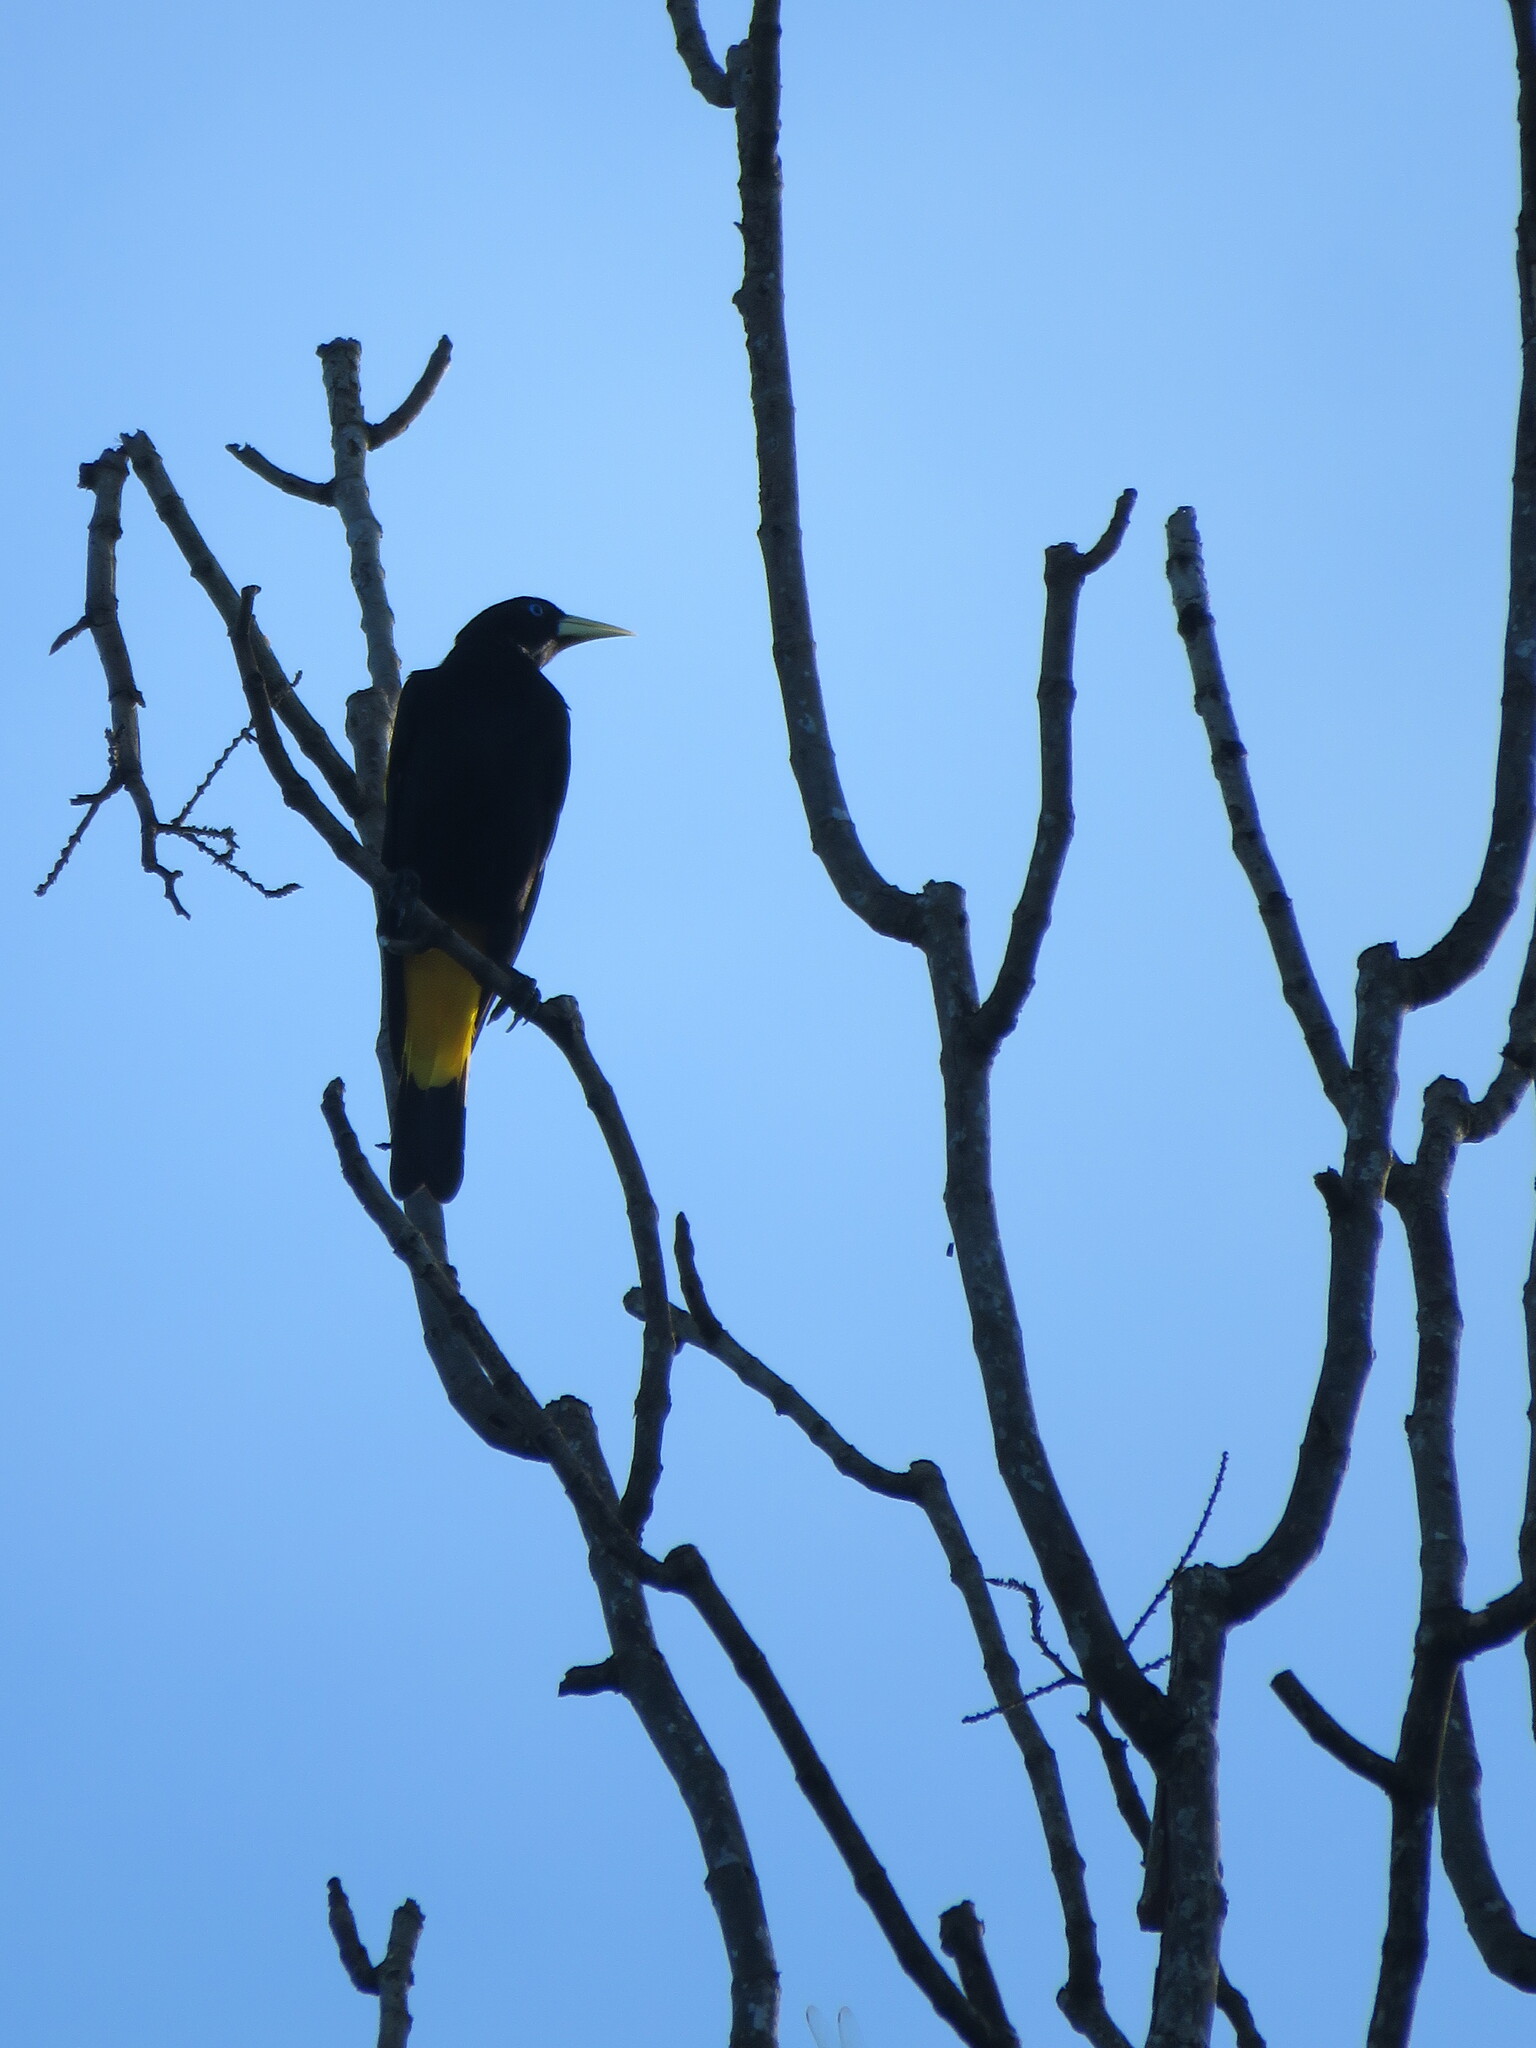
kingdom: Animalia
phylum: Chordata
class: Aves
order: Passeriformes
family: Icteridae
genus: Cacicus
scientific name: Cacicus cela
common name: Yellow-rumped cacique
